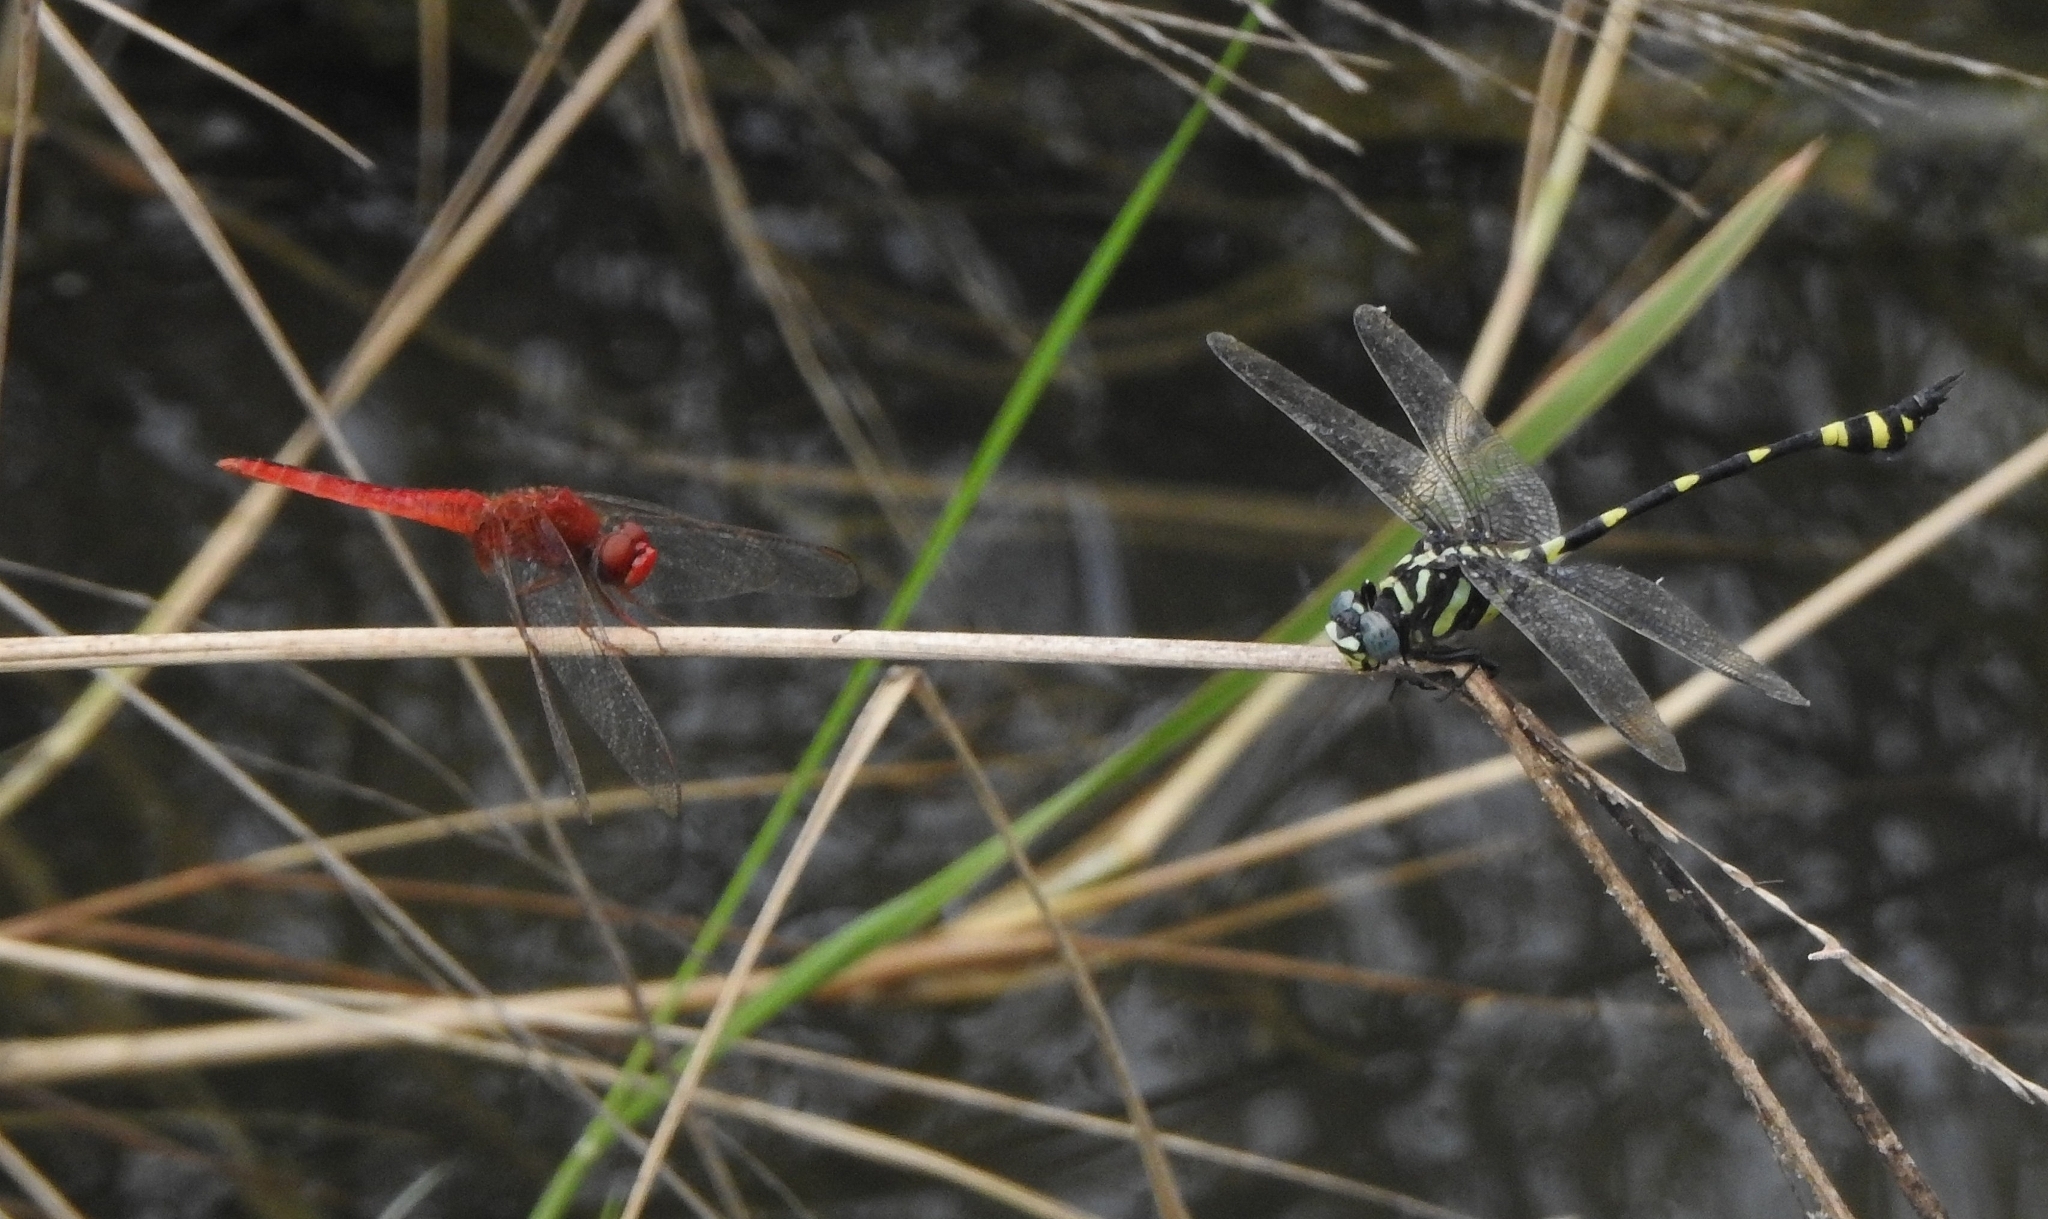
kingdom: Animalia
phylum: Arthropoda
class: Insecta
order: Odonata
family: Gomphidae
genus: Ictinogomphus
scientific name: Ictinogomphus rapax
